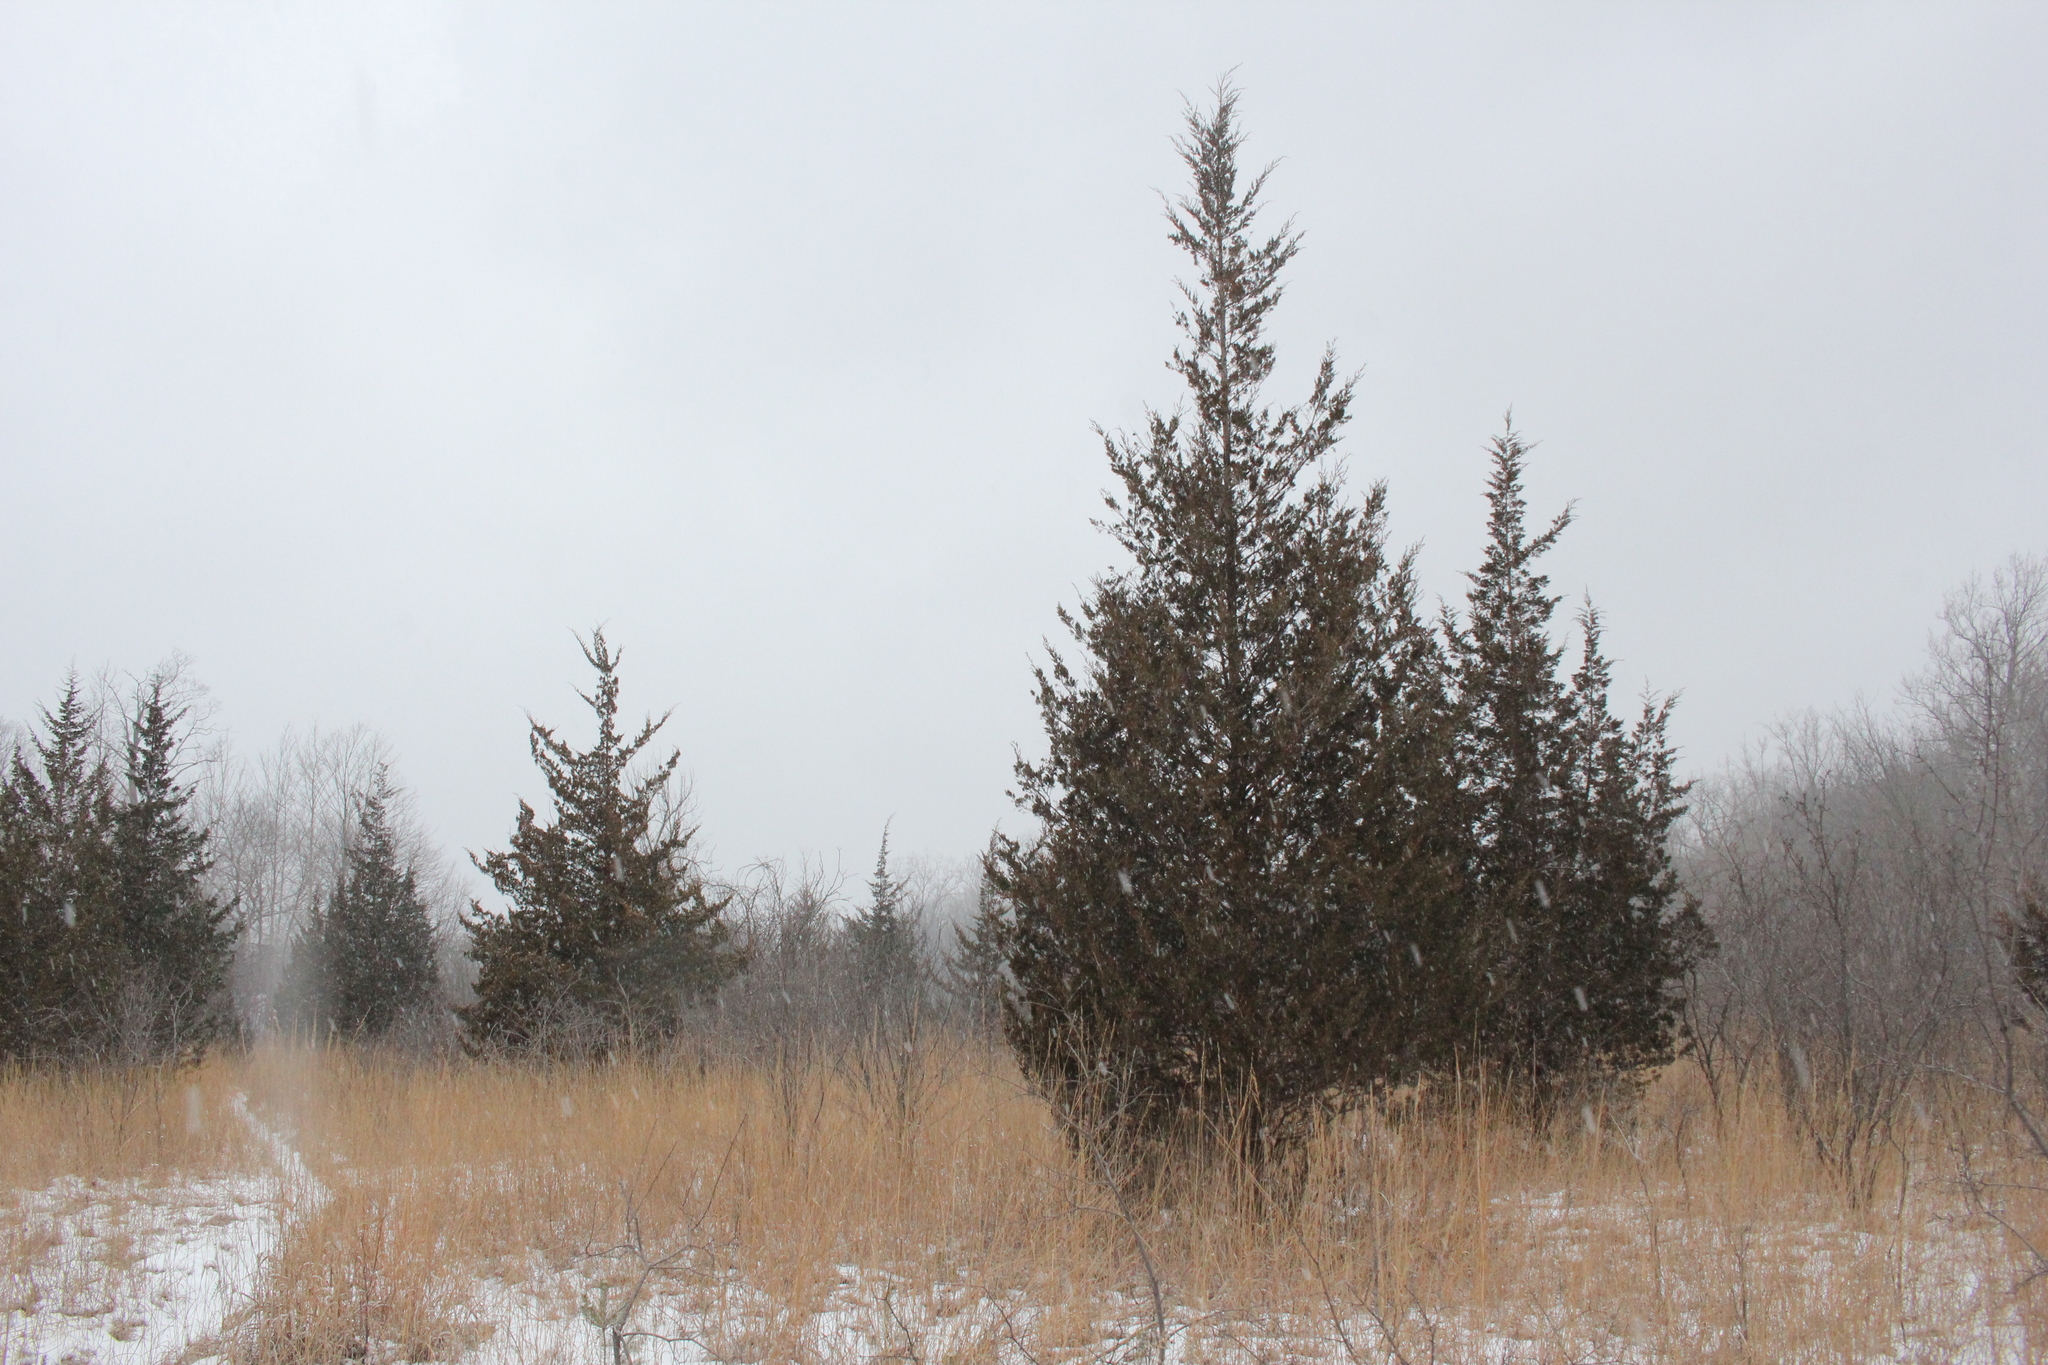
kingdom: Plantae
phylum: Tracheophyta
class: Pinopsida
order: Pinales
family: Cupressaceae
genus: Juniperus
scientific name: Juniperus virginiana
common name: Red juniper
